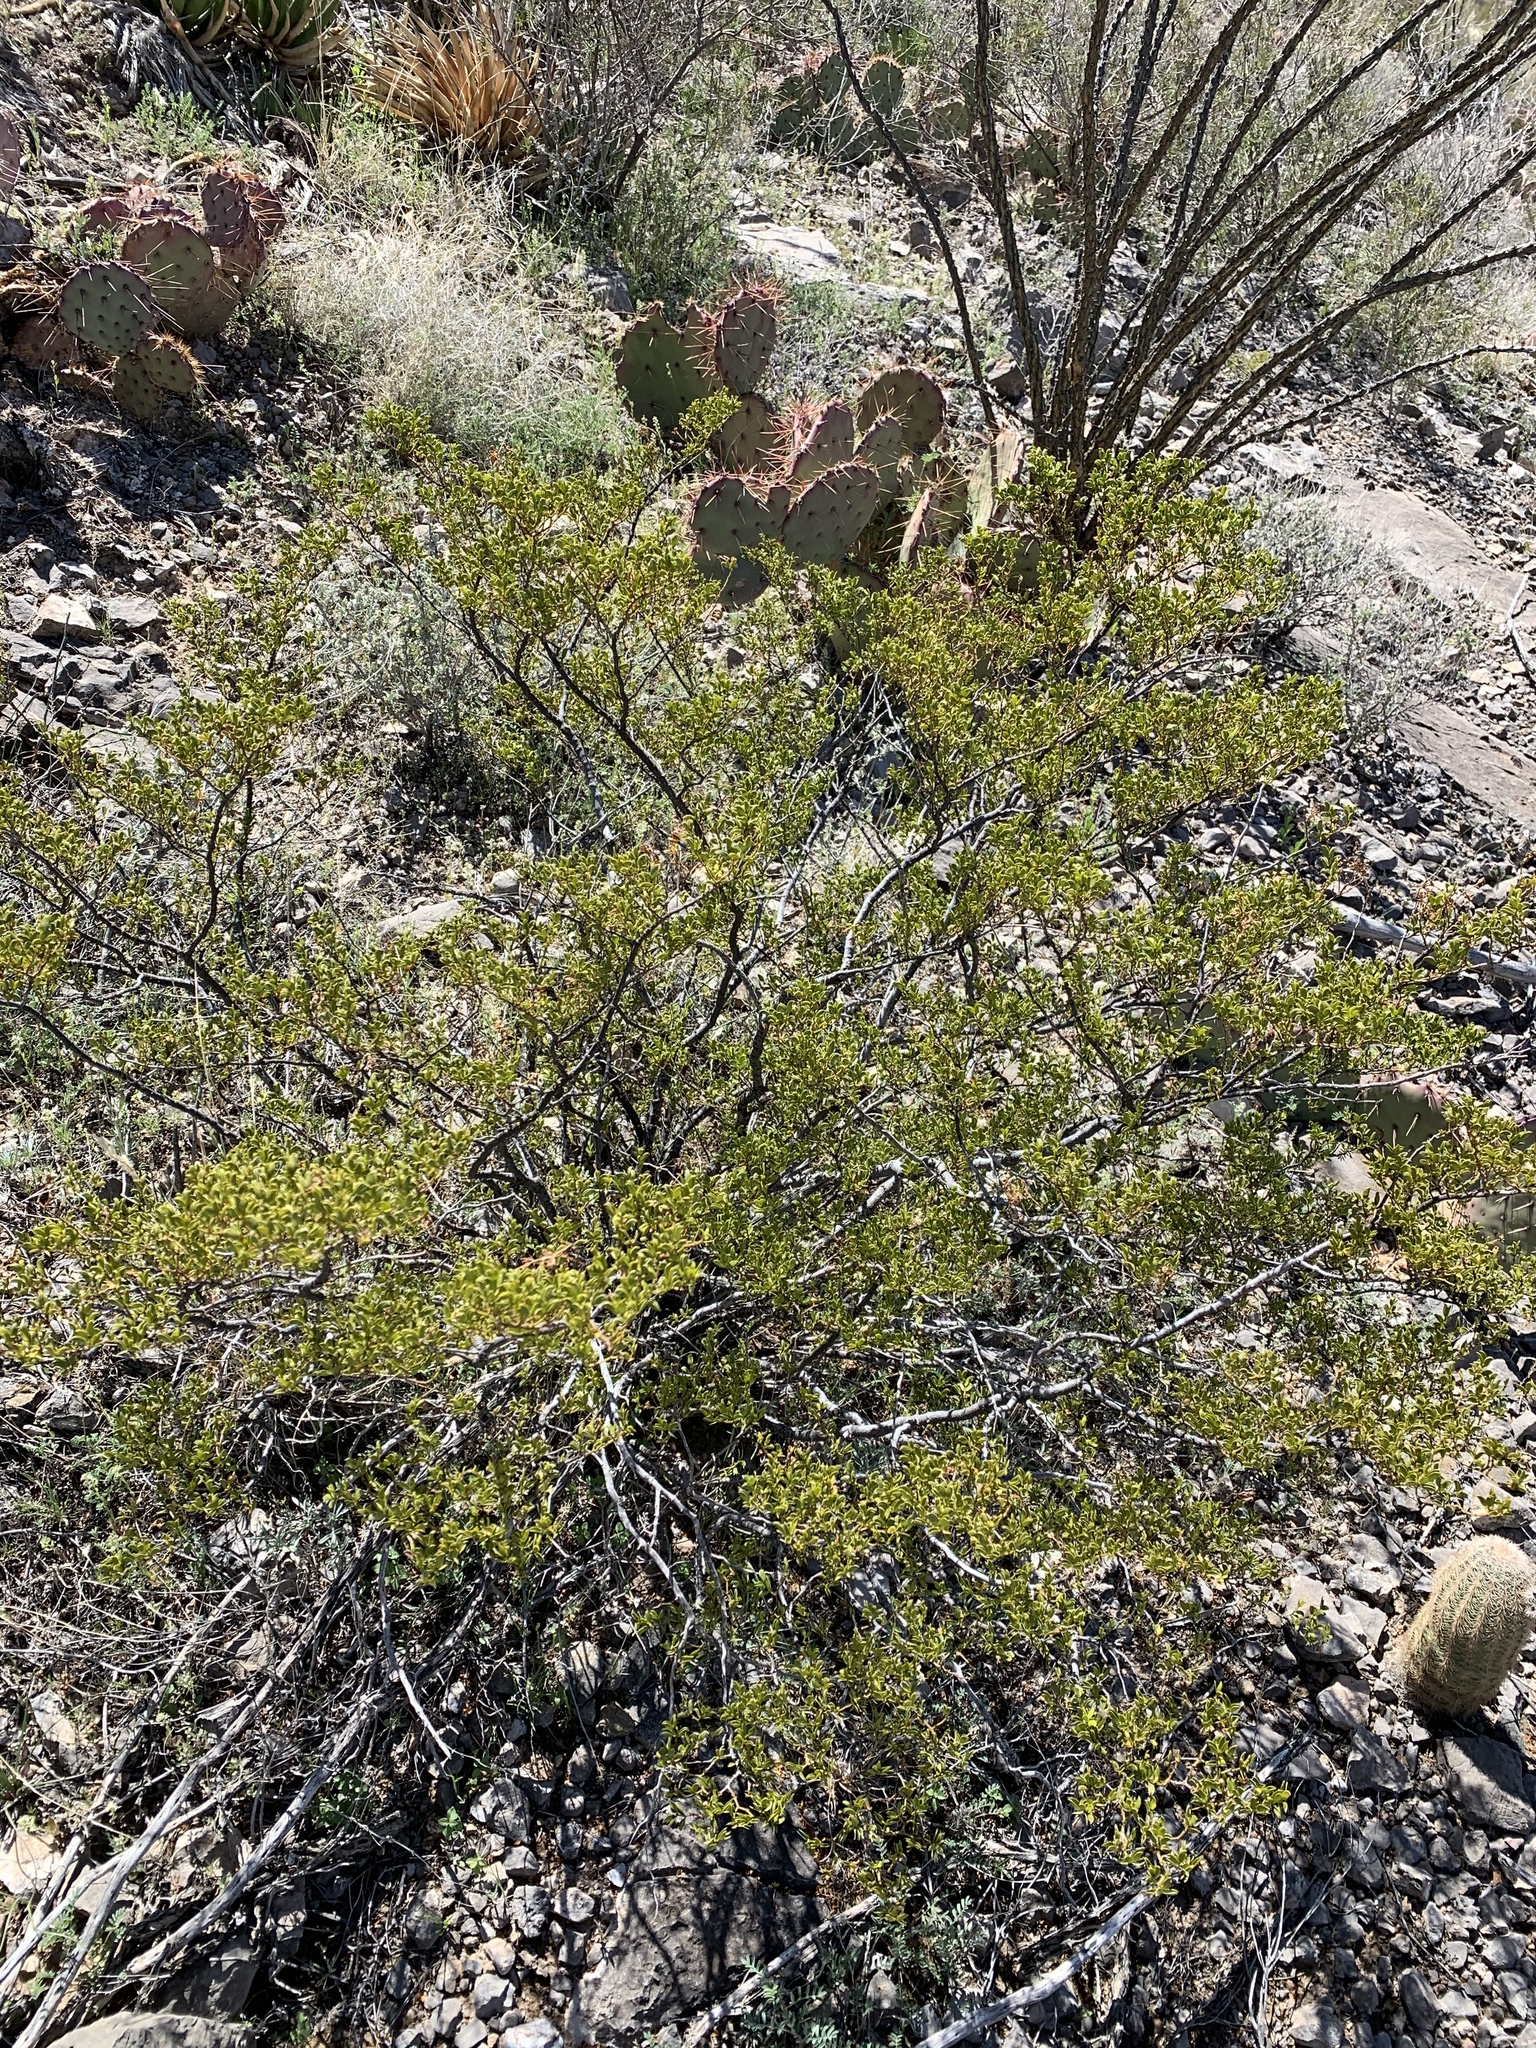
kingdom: Plantae
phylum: Tracheophyta
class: Magnoliopsida
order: Zygophyllales
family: Zygophyllaceae
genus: Larrea
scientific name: Larrea tridentata
